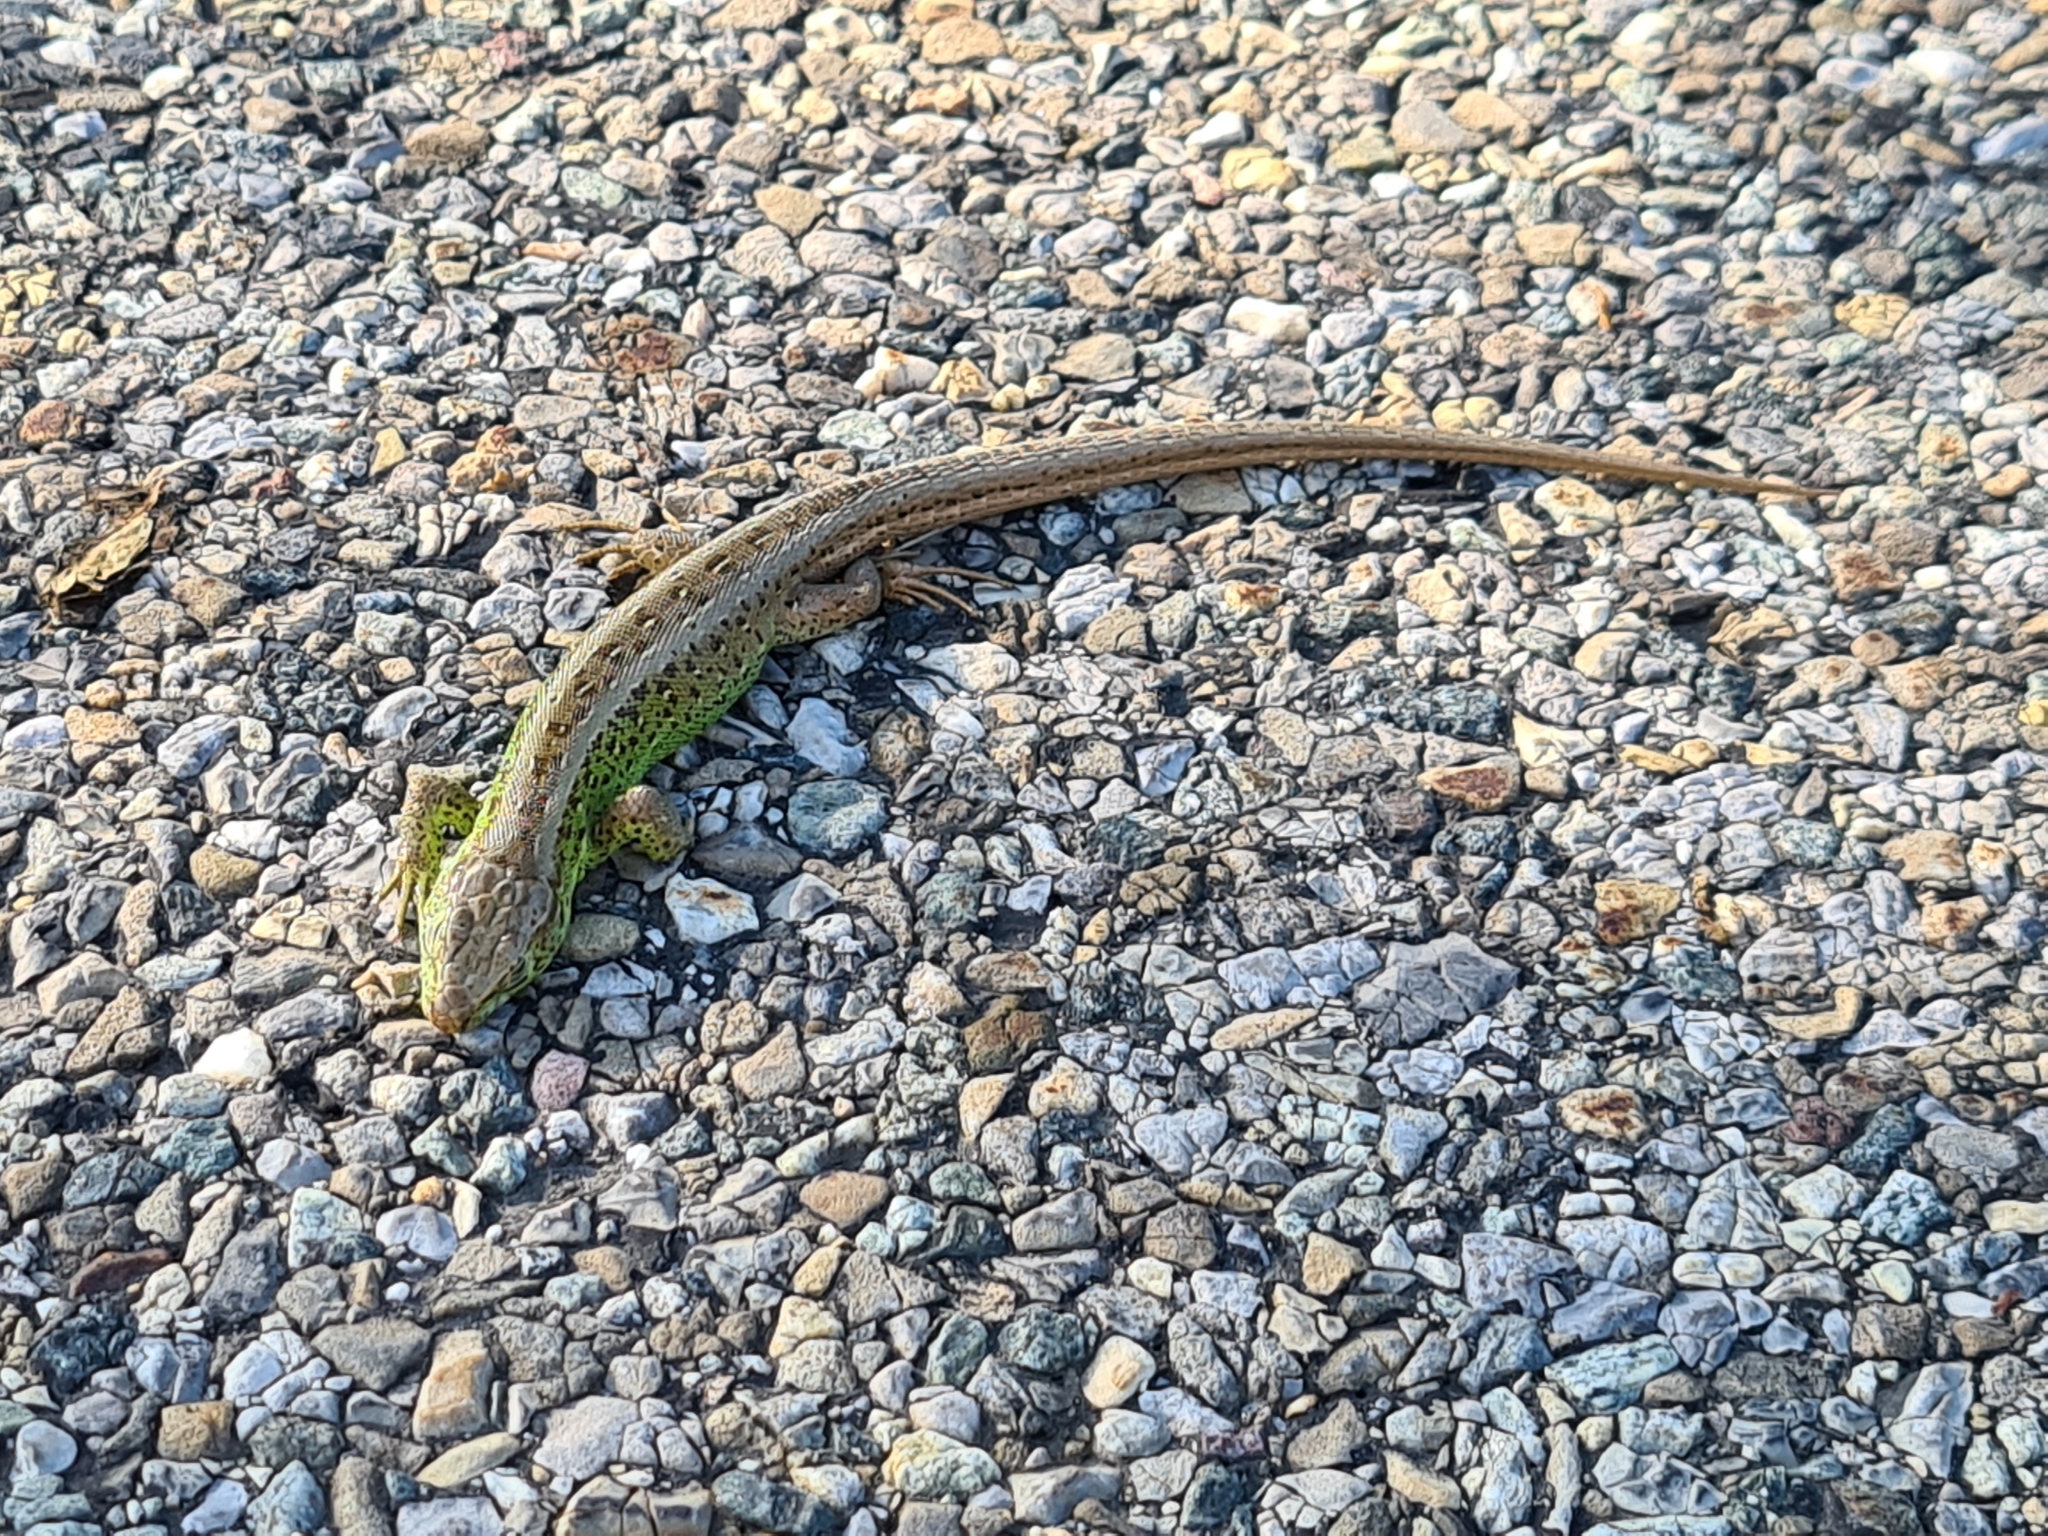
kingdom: Animalia
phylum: Chordata
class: Squamata
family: Lacertidae
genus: Lacerta
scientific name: Lacerta agilis
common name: Sand lizard
